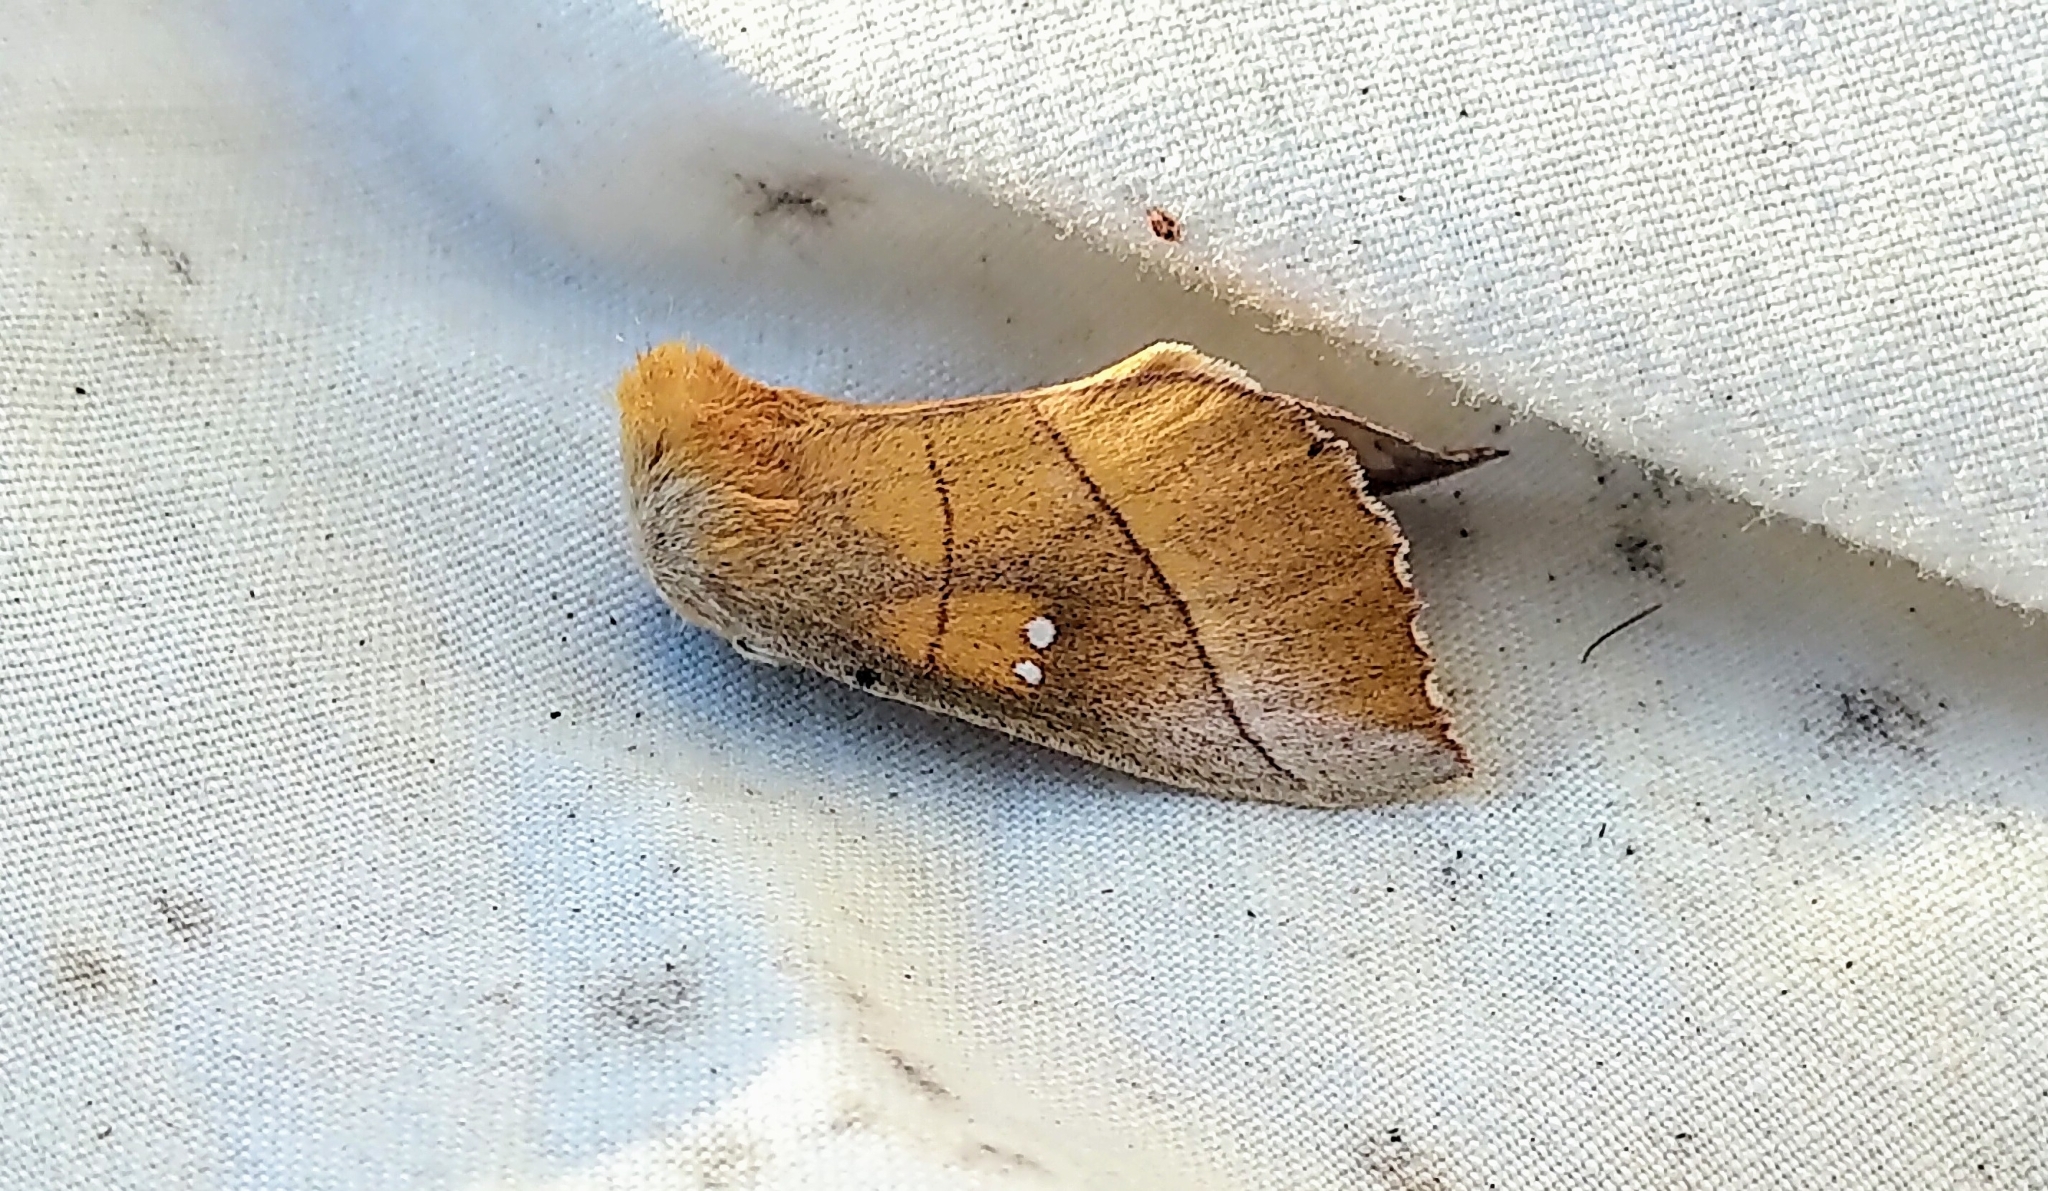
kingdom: Animalia
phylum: Arthropoda
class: Insecta
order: Lepidoptera
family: Notodontidae
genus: Nadata
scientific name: Nadata gibbosa
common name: White-dotted prominent
